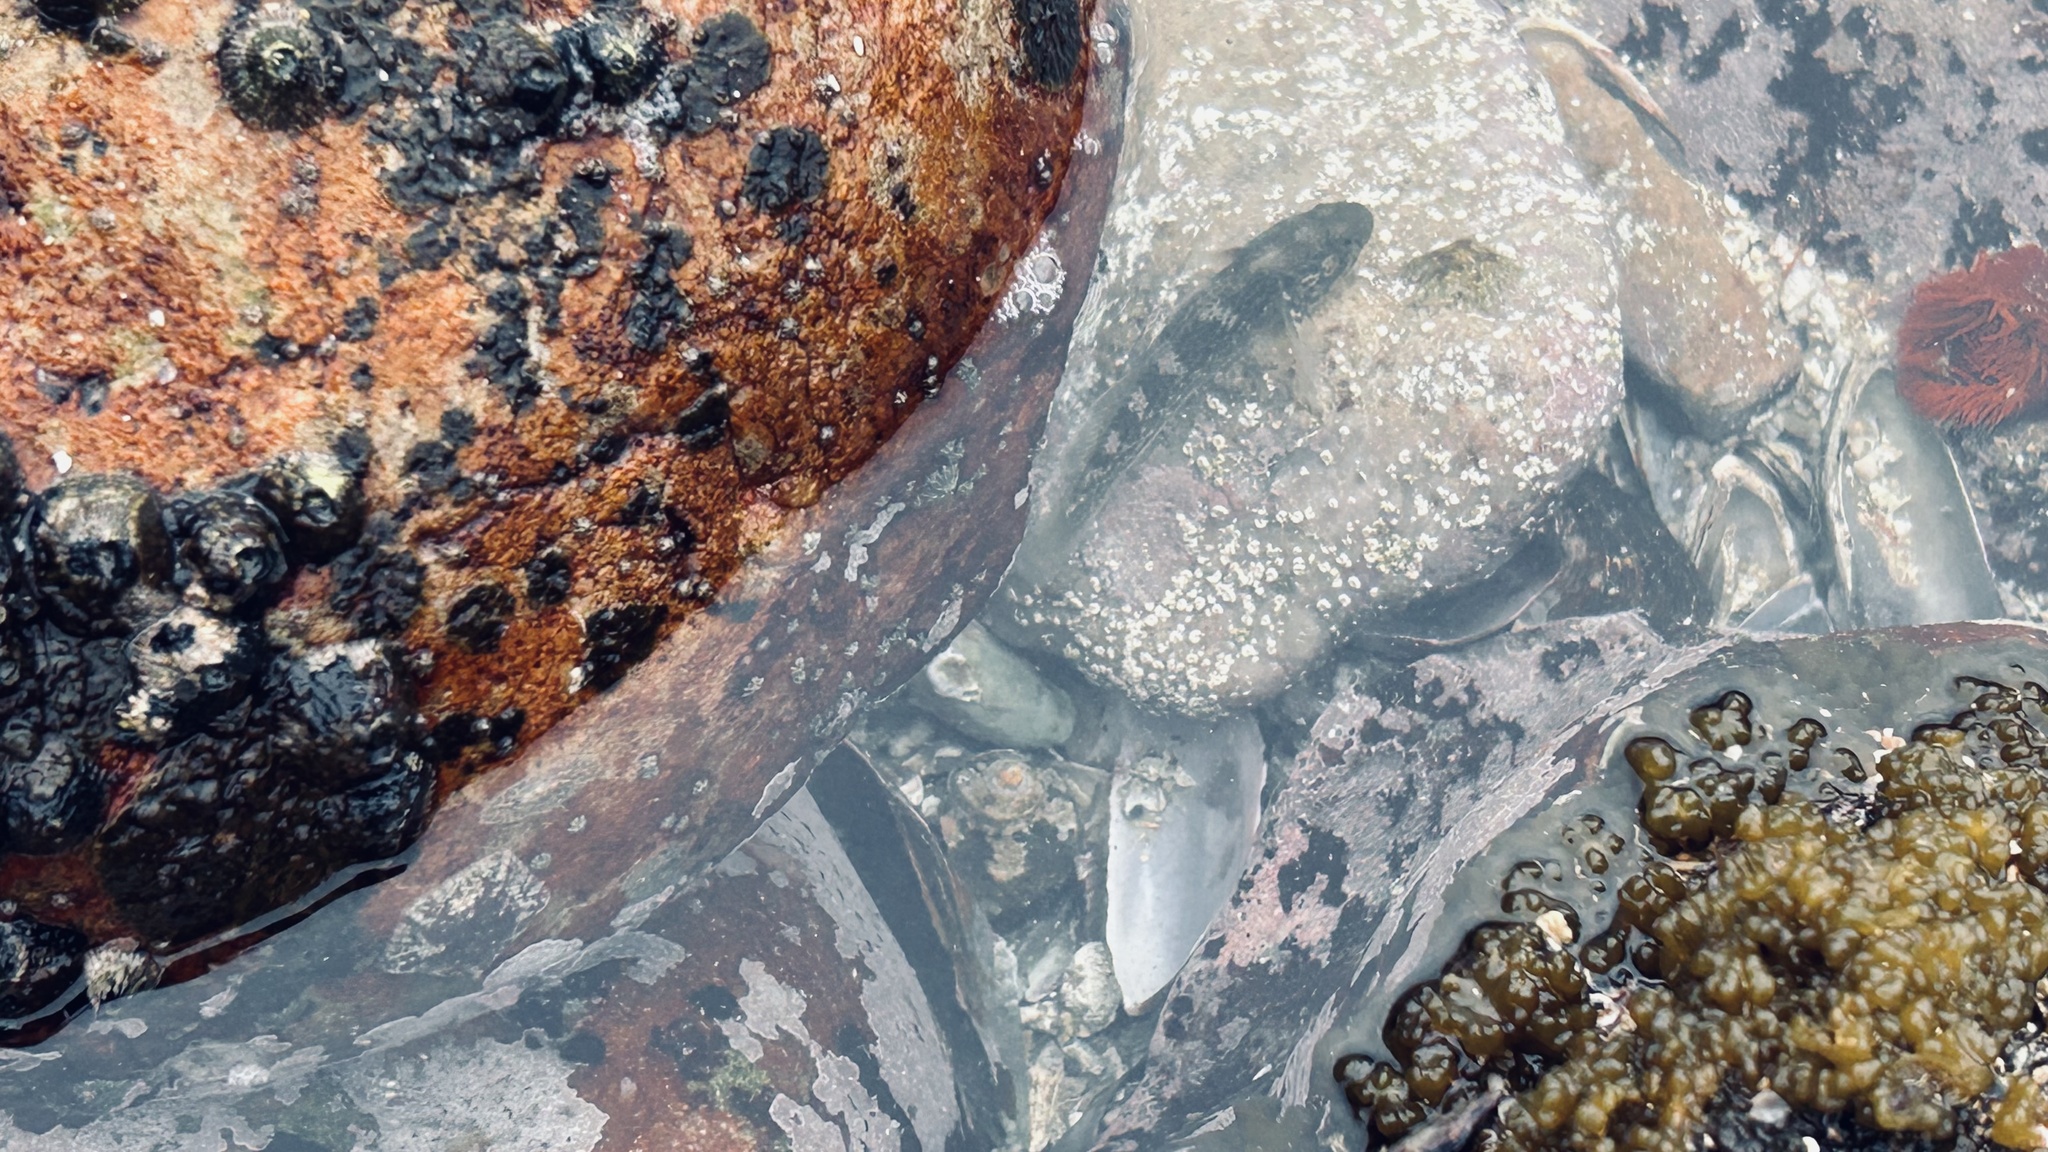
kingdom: Animalia
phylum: Chordata
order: Perciformes
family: Gobiidae
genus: Caffrogobius
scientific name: Caffrogobius caffer
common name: Banded goby
